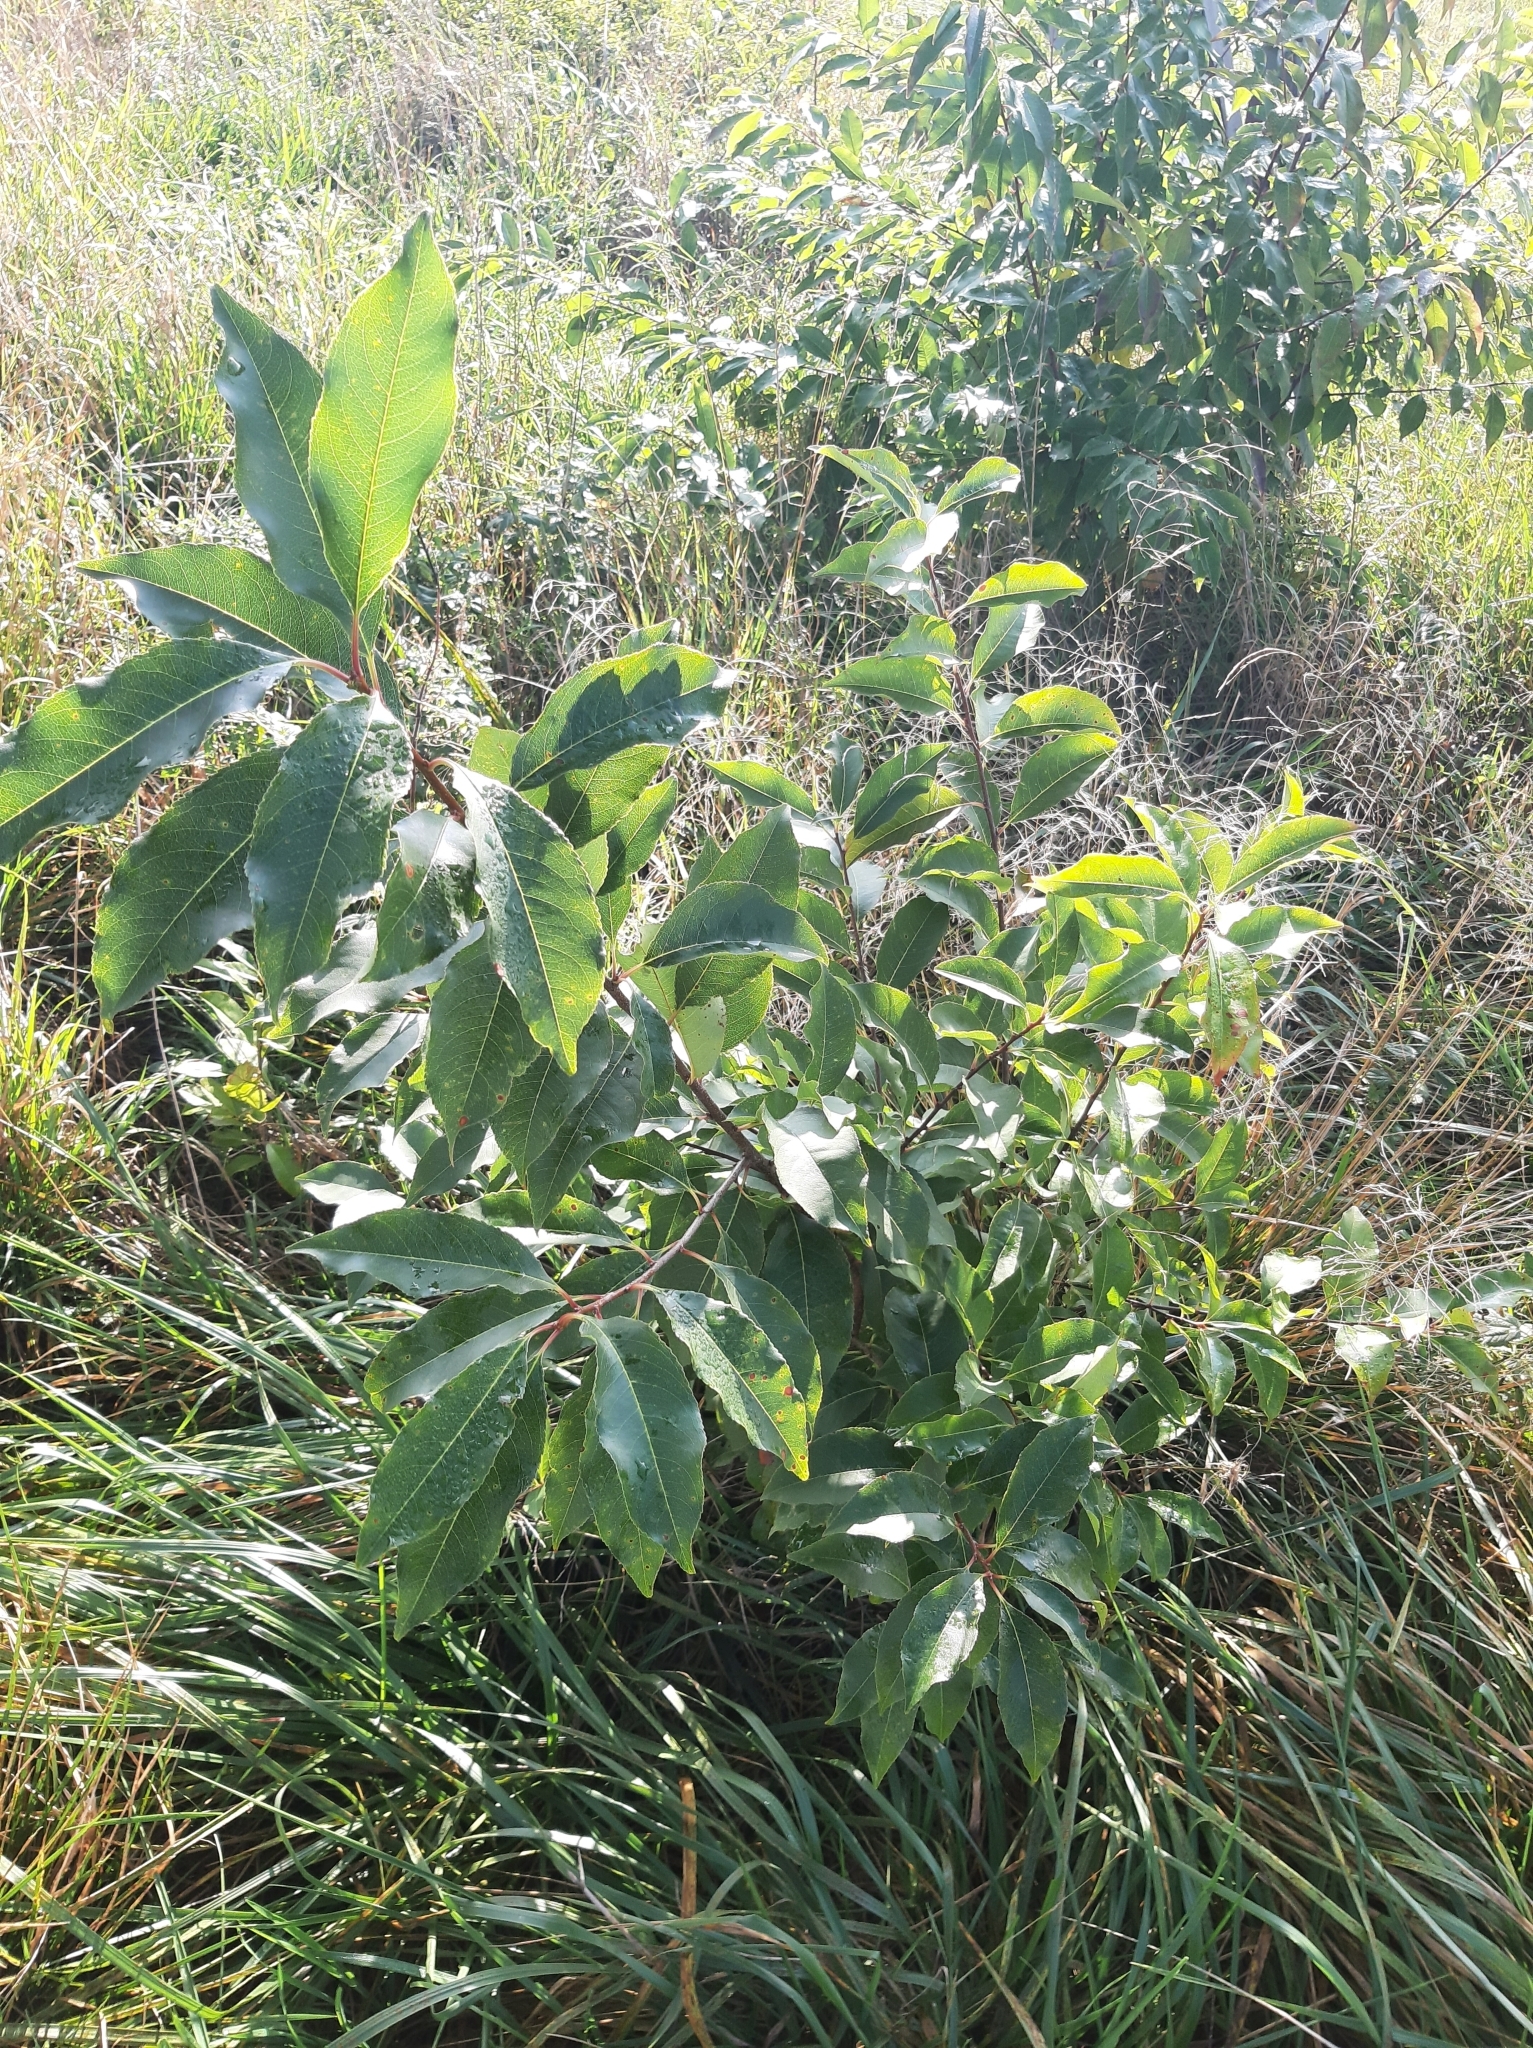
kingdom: Plantae
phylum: Tracheophyta
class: Magnoliopsida
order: Rosales
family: Rosaceae
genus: Prunus
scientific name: Prunus serotina
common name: Black cherry
